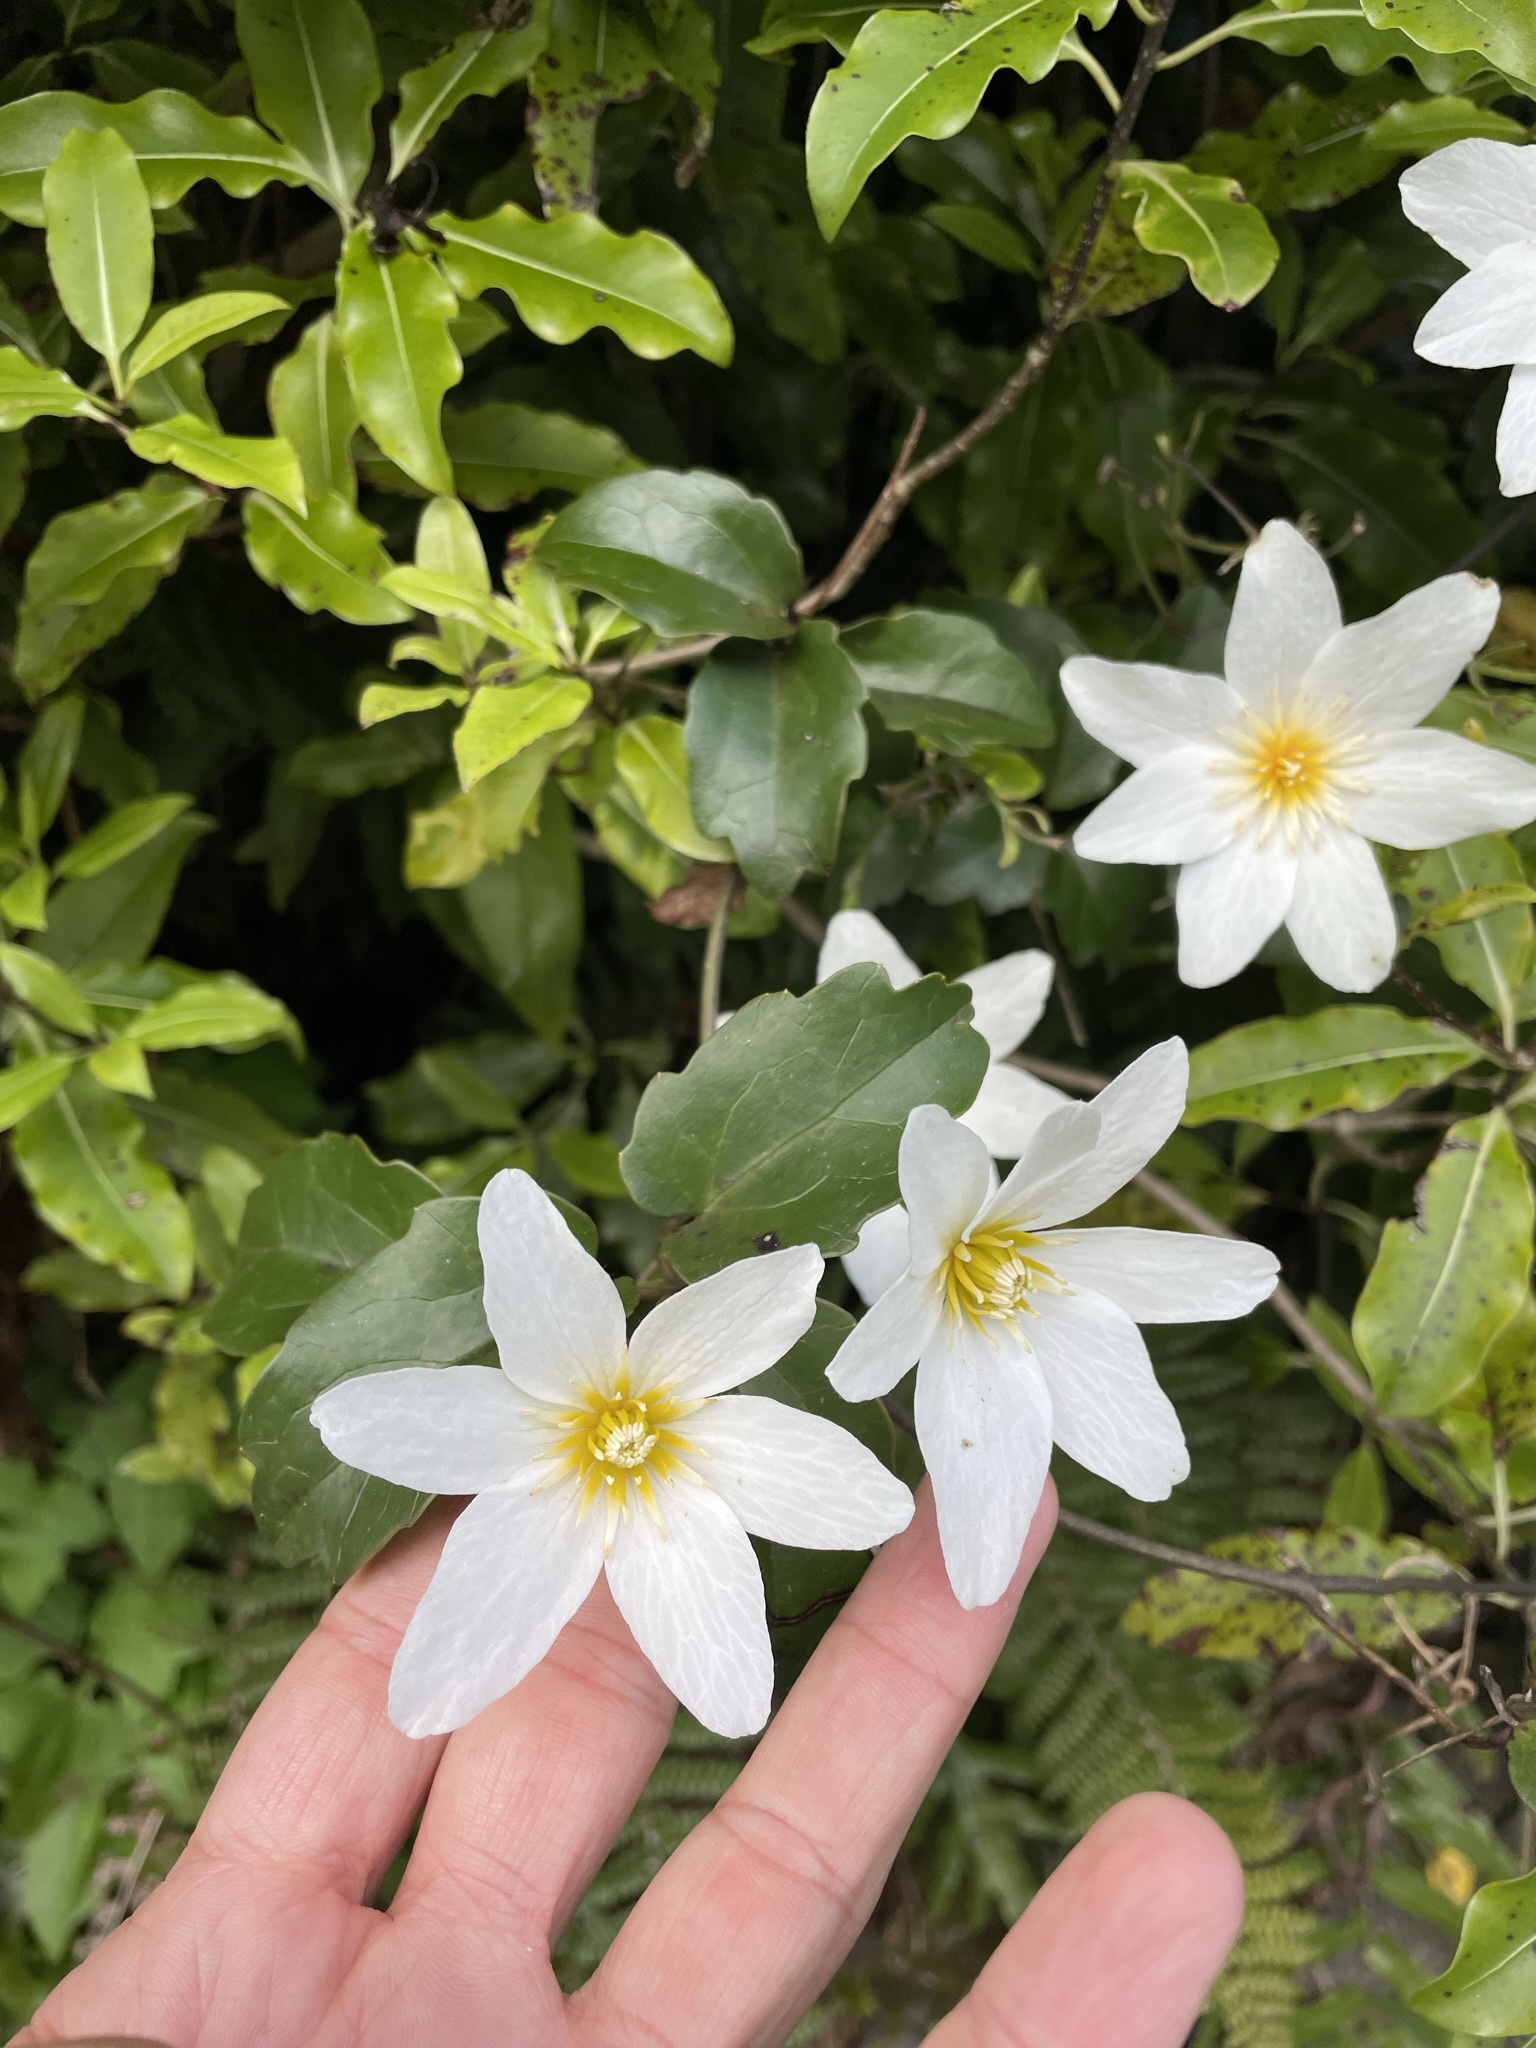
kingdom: Plantae
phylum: Tracheophyta
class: Magnoliopsida
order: Ranunculales
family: Ranunculaceae
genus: Clematis
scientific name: Clematis paniculata
